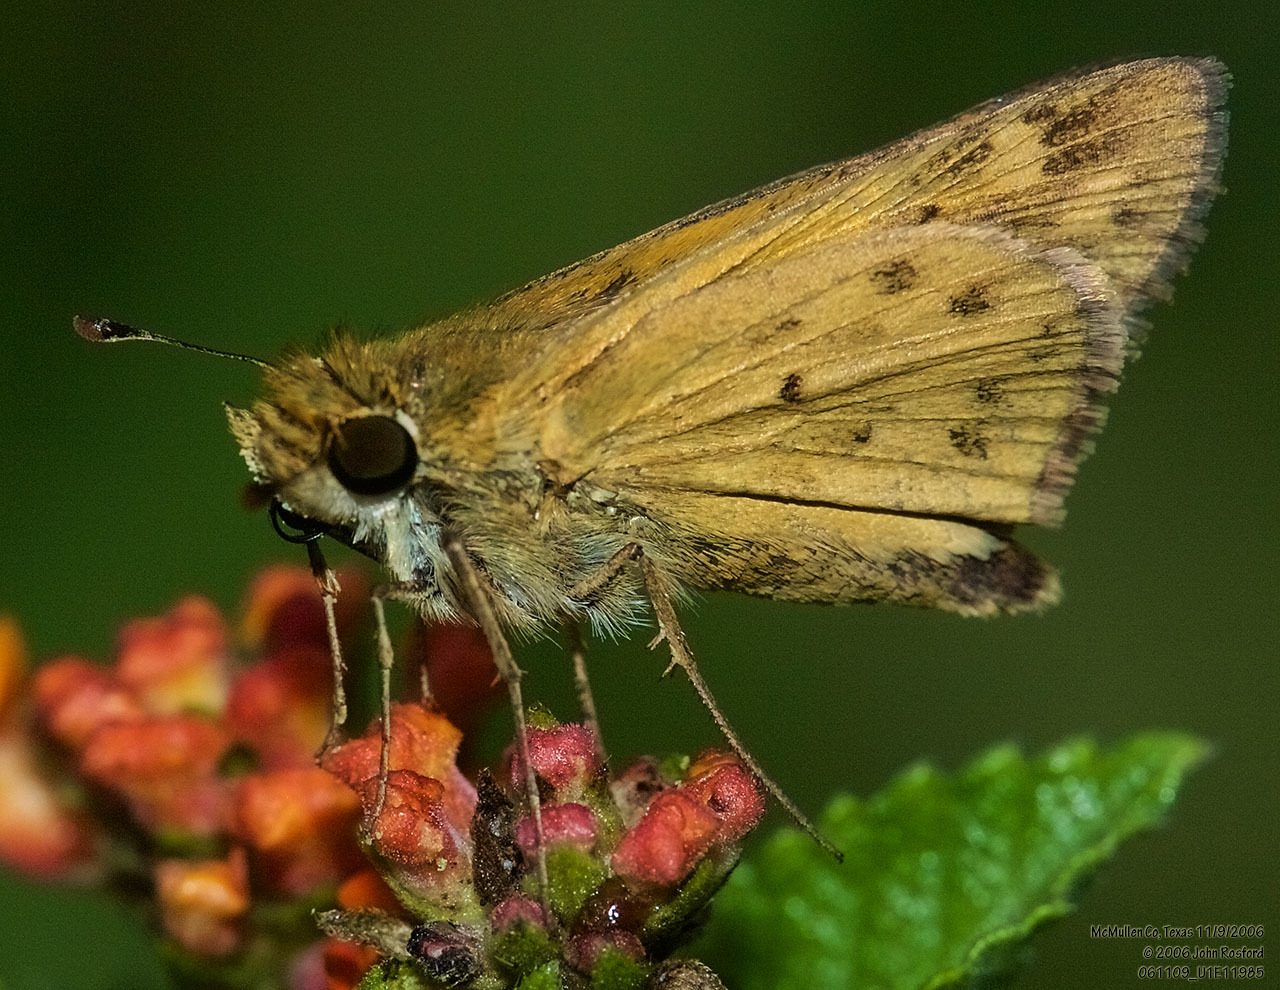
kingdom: Animalia
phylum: Arthropoda
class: Insecta
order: Lepidoptera
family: Hesperiidae
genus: Hylephila
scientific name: Hylephila phyleus
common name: Fiery skipper
